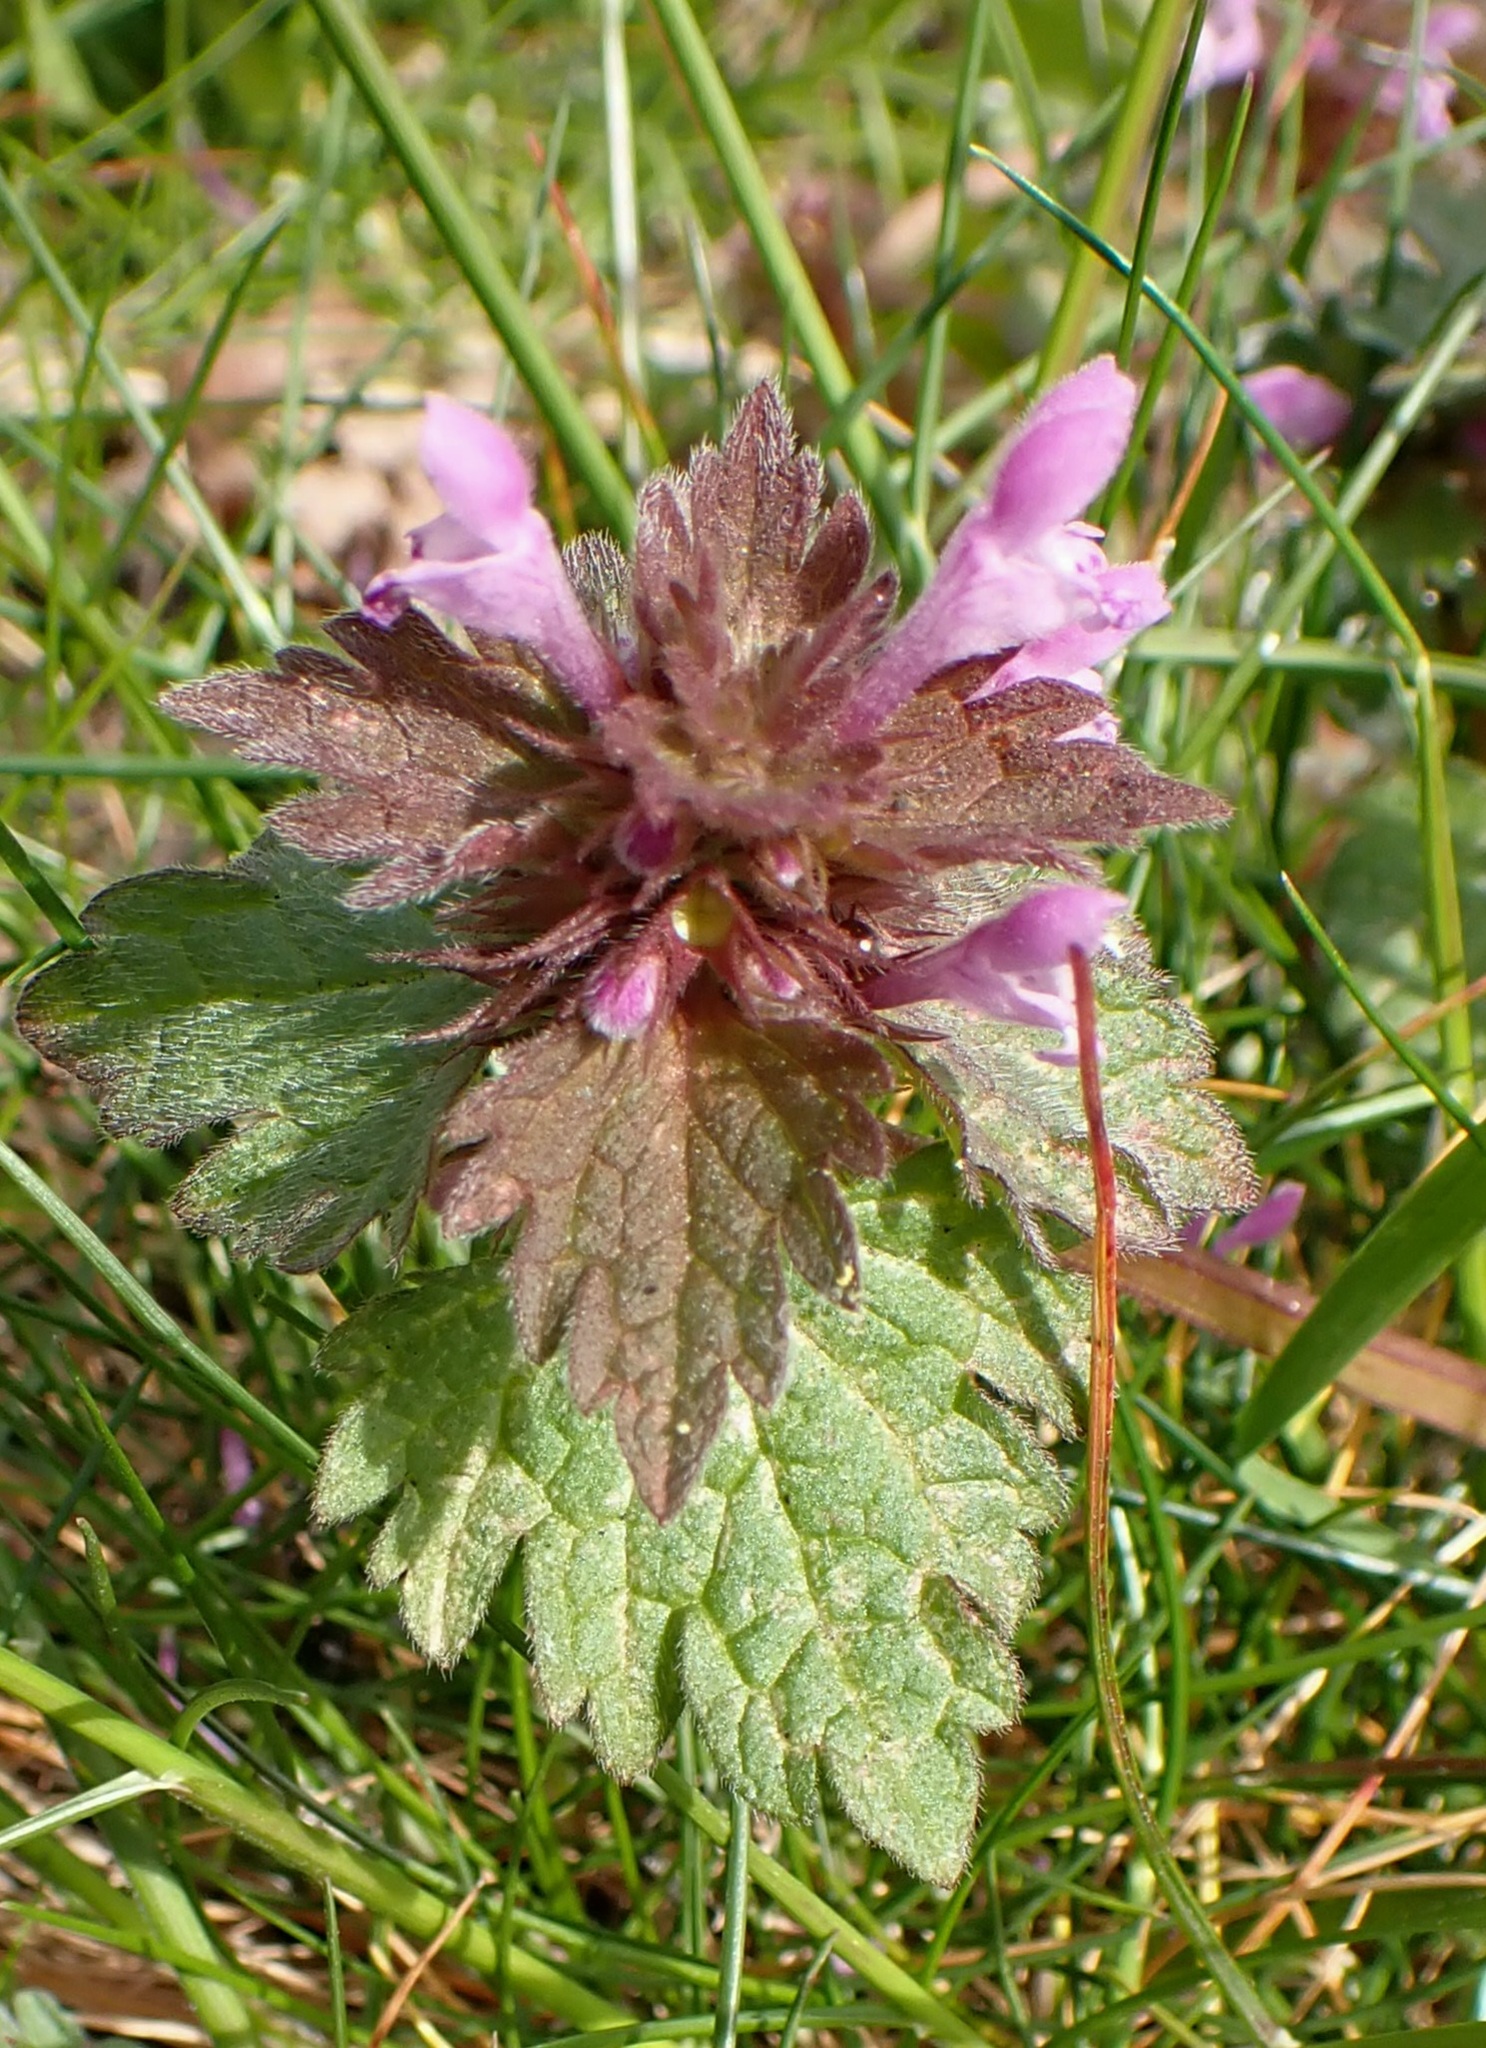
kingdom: Plantae
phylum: Tracheophyta
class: Magnoliopsida
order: Lamiales
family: Lamiaceae
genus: Lamium
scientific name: Lamium hybridum
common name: Cut-leaved dead-nettle
